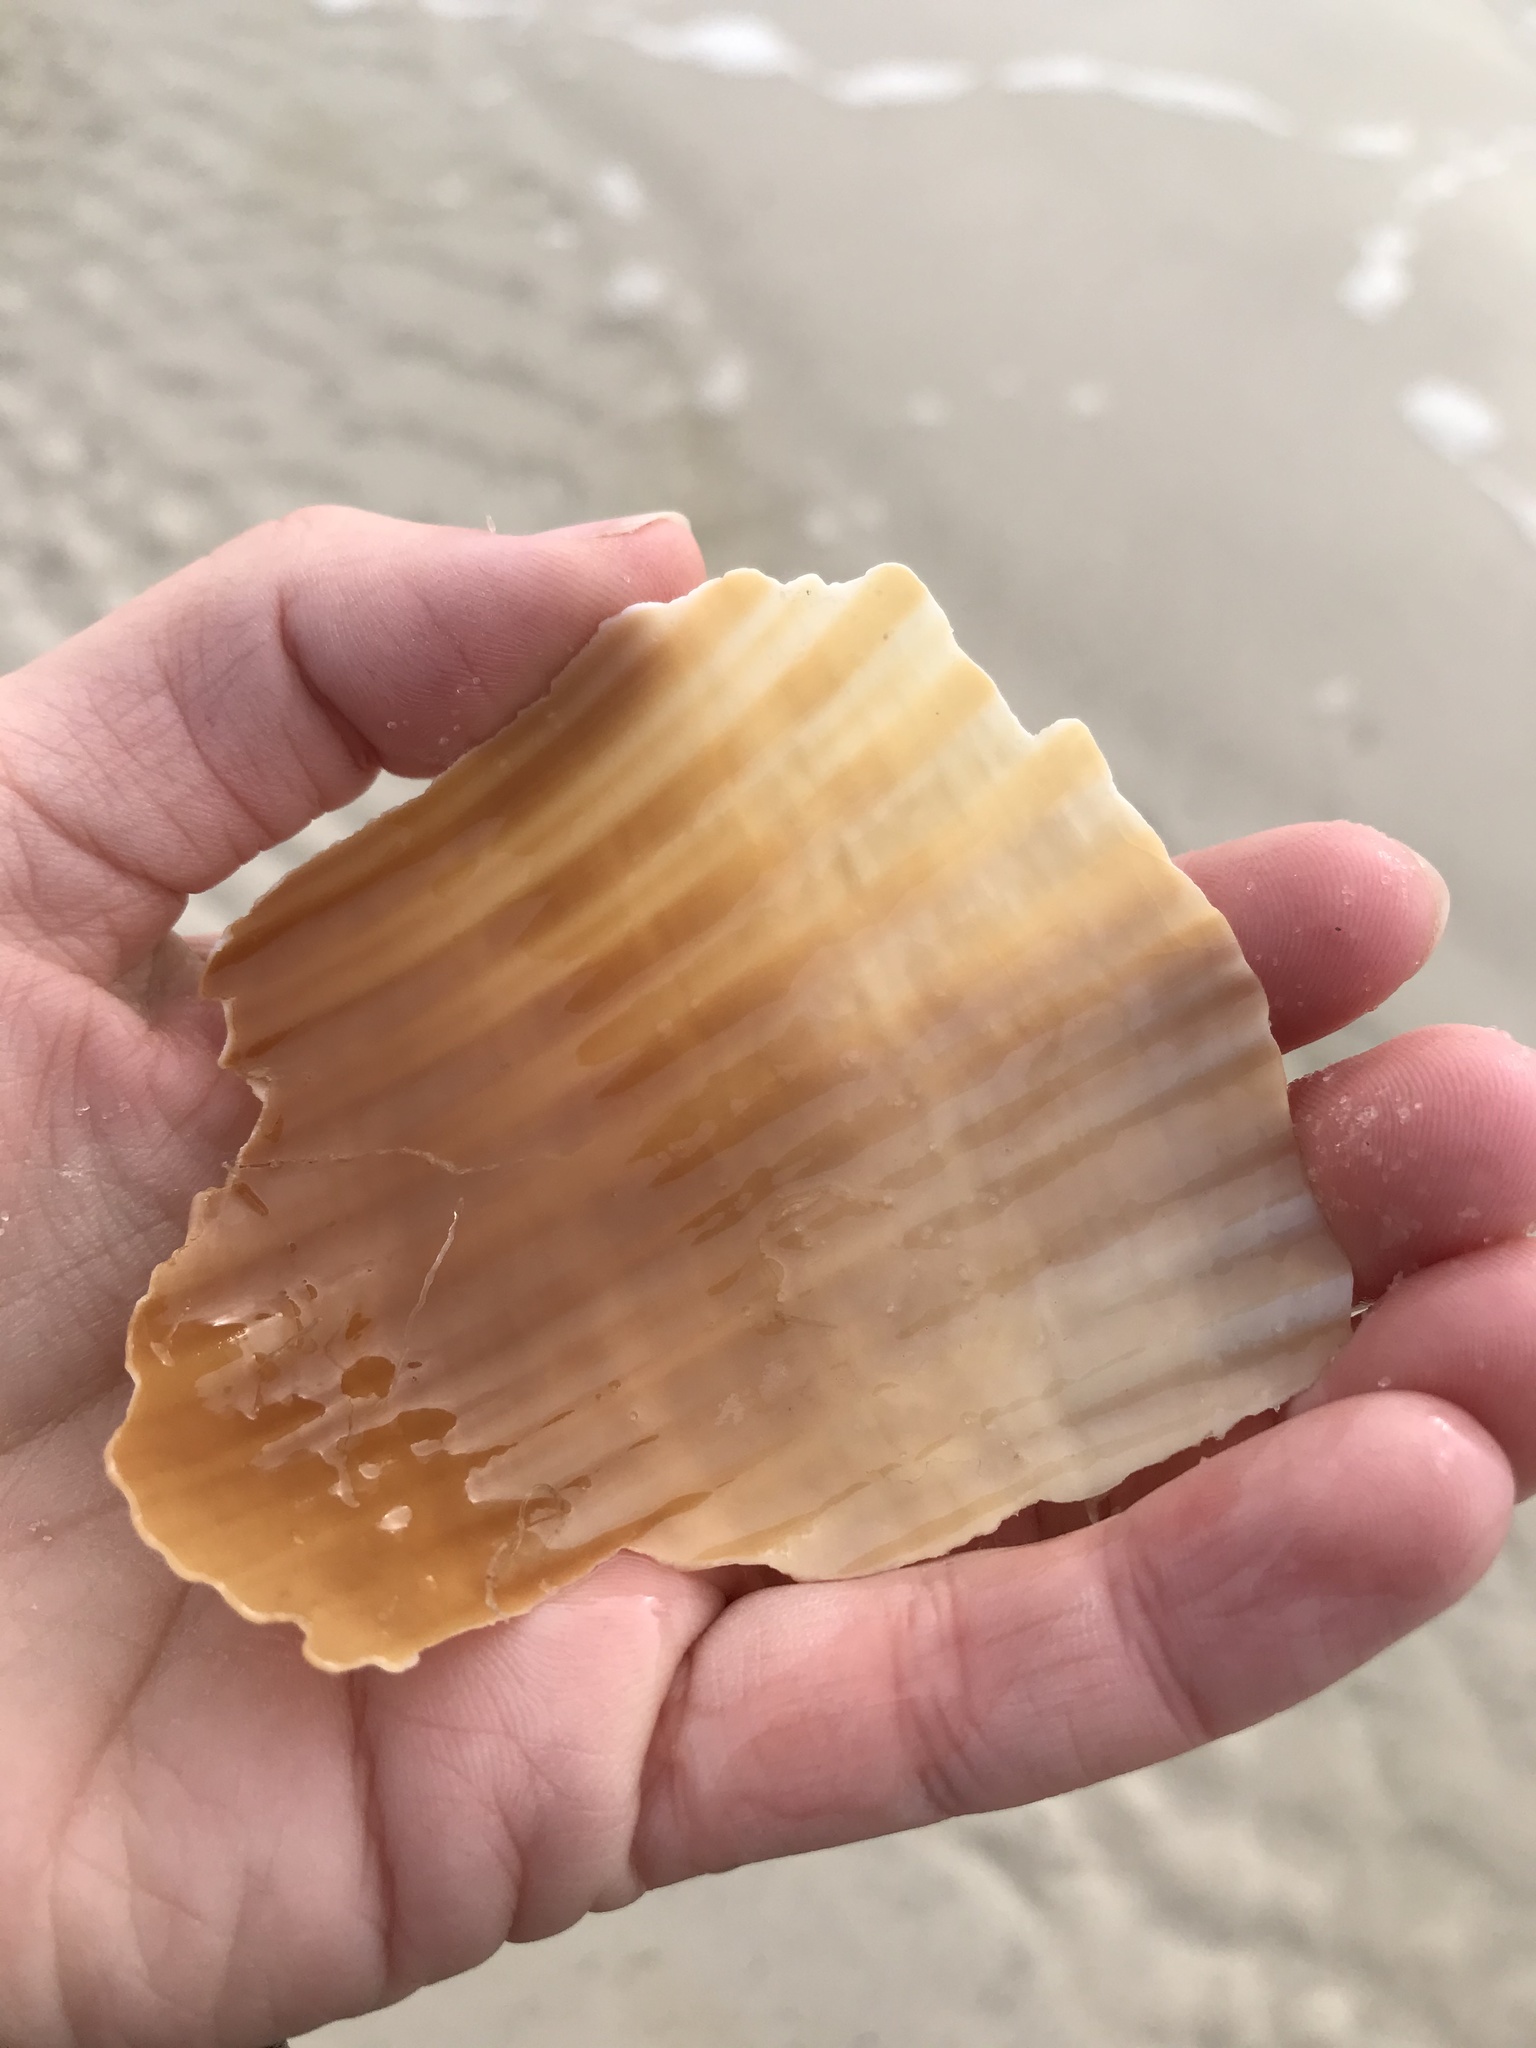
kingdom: Animalia
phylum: Mollusca
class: Gastropoda
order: Littorinimorpha
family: Tonnidae
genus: Tonna
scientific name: Tonna galea
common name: Giant tun
